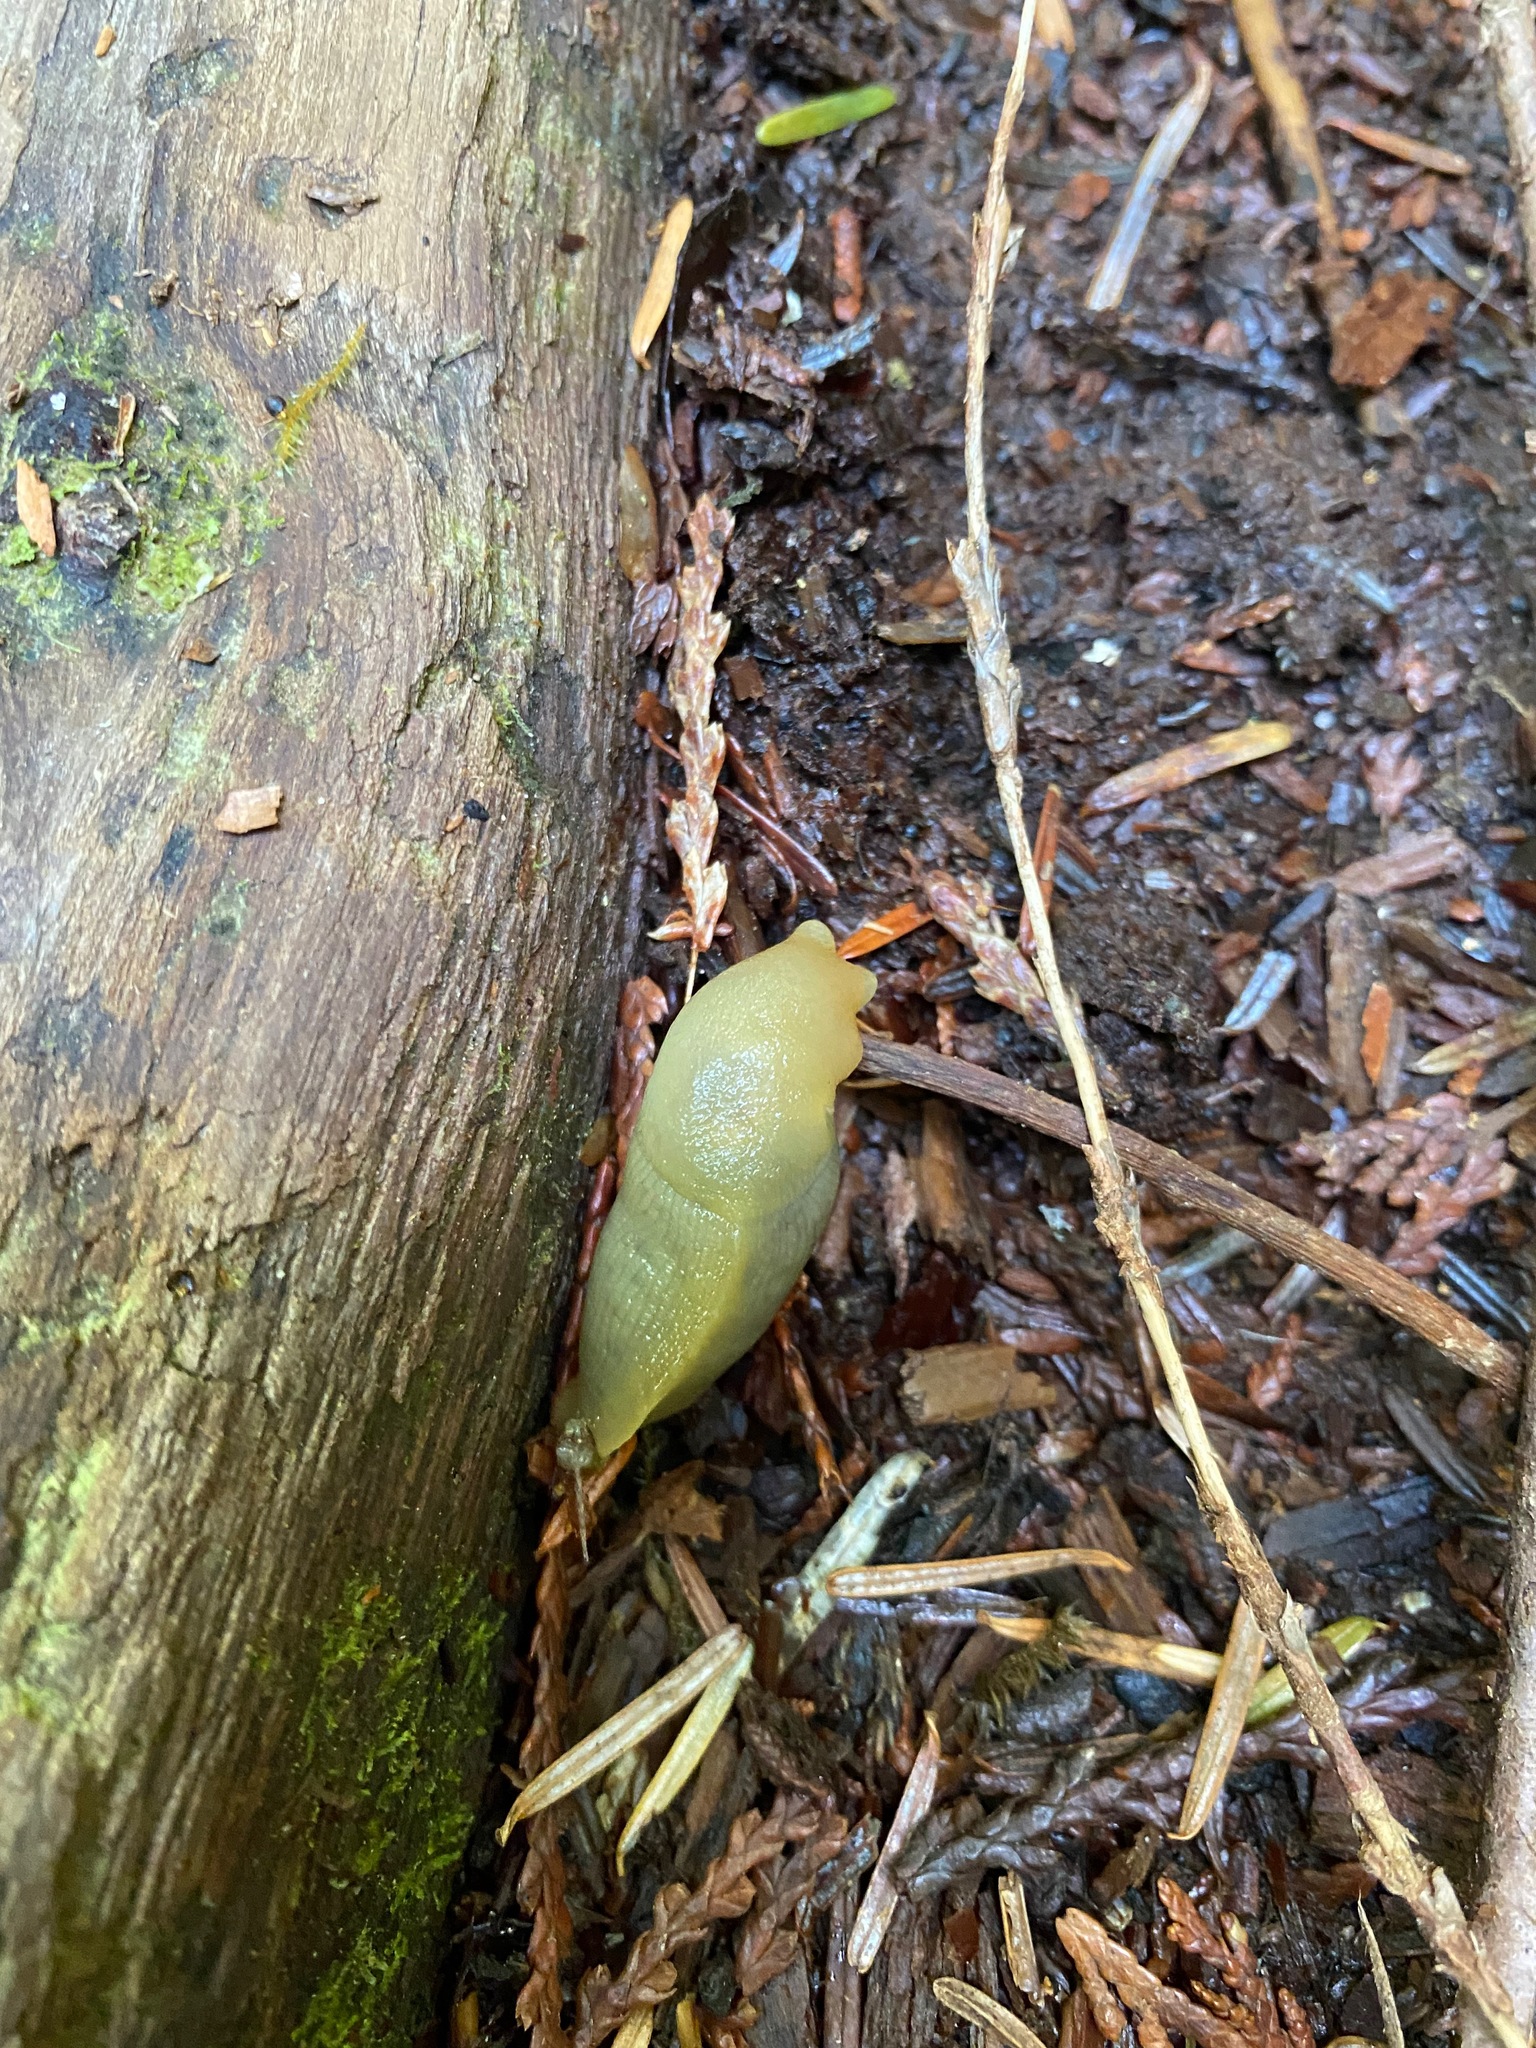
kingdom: Animalia
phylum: Mollusca
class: Gastropoda
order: Stylommatophora
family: Ariolimacidae
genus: Ariolimax
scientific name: Ariolimax columbianus
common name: Pacific banana slug
